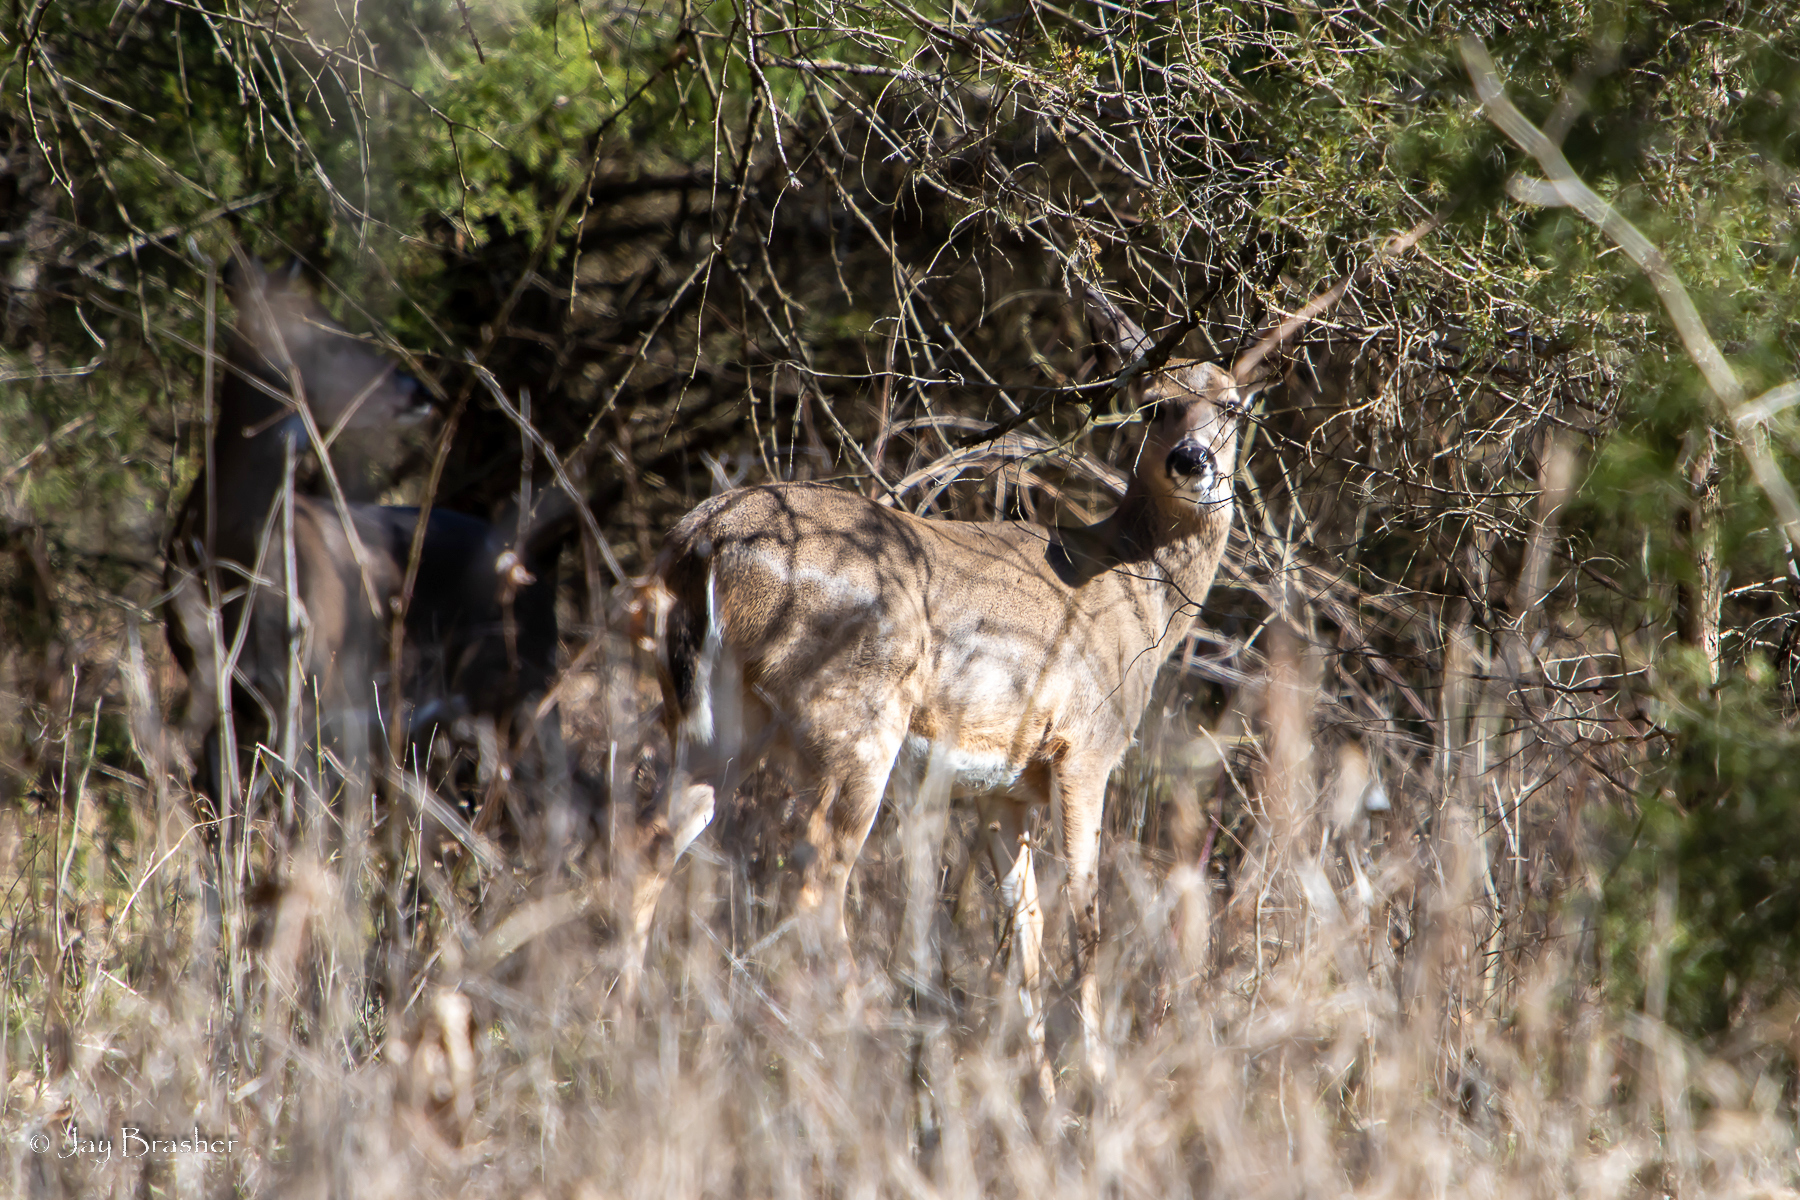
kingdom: Animalia
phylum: Chordata
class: Mammalia
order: Artiodactyla
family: Cervidae
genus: Odocoileus
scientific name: Odocoileus virginianus
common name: White-tailed deer
